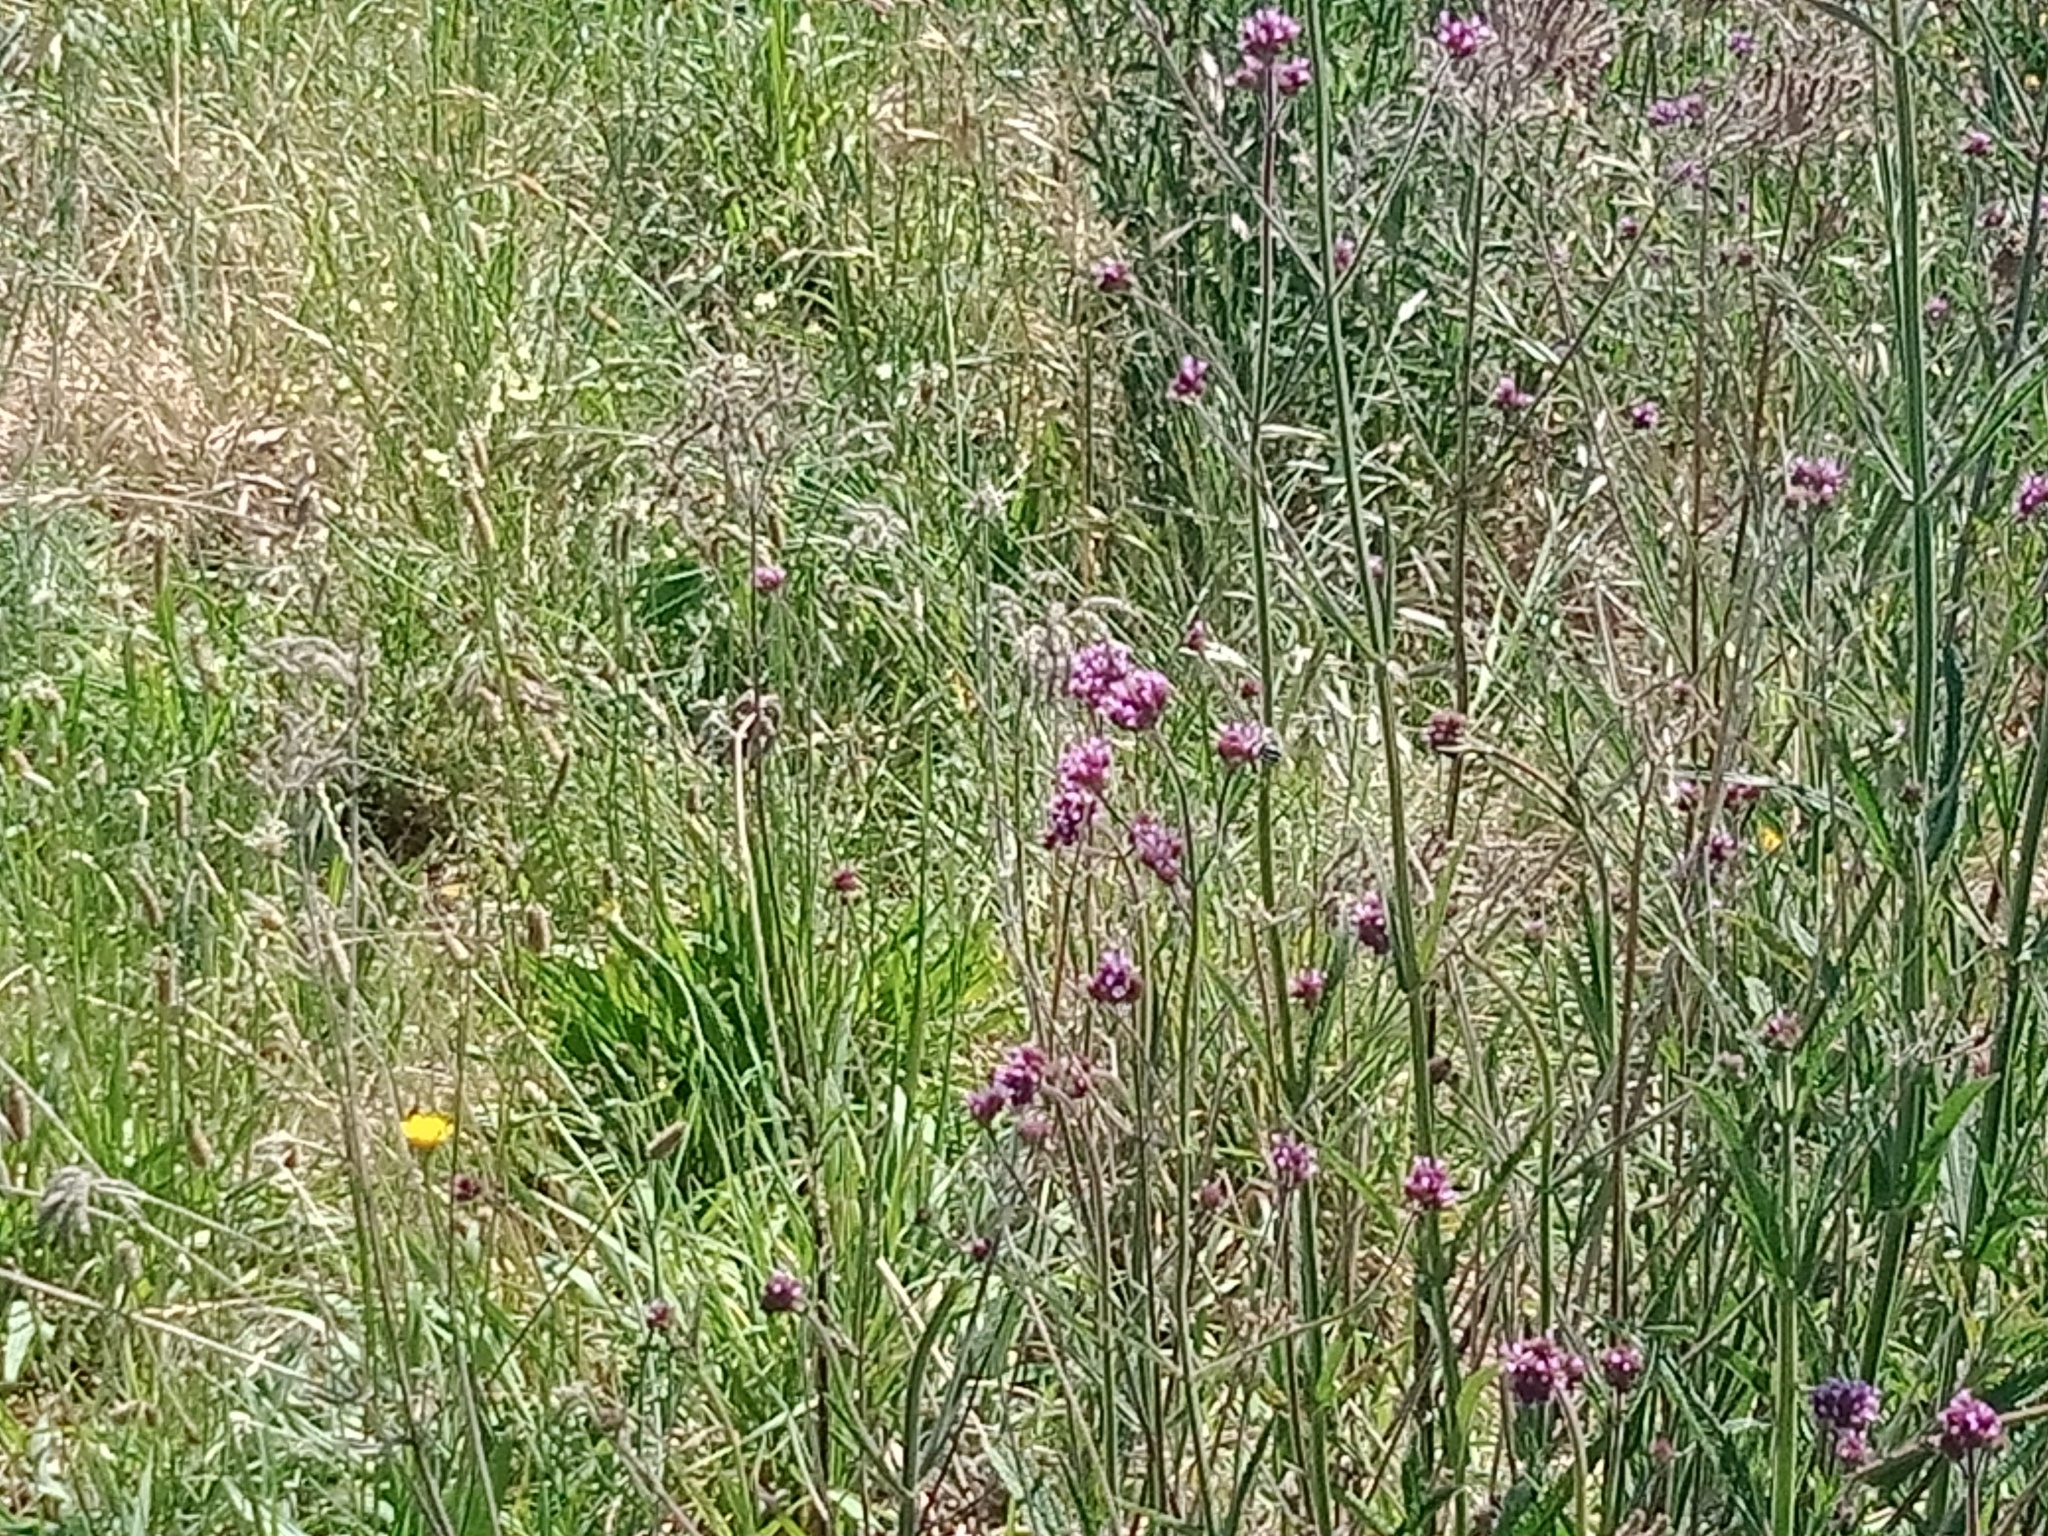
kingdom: Plantae
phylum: Tracheophyta
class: Magnoliopsida
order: Lamiales
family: Verbenaceae
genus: Verbena
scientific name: Verbena bonariensis
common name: Purpletop vervain
